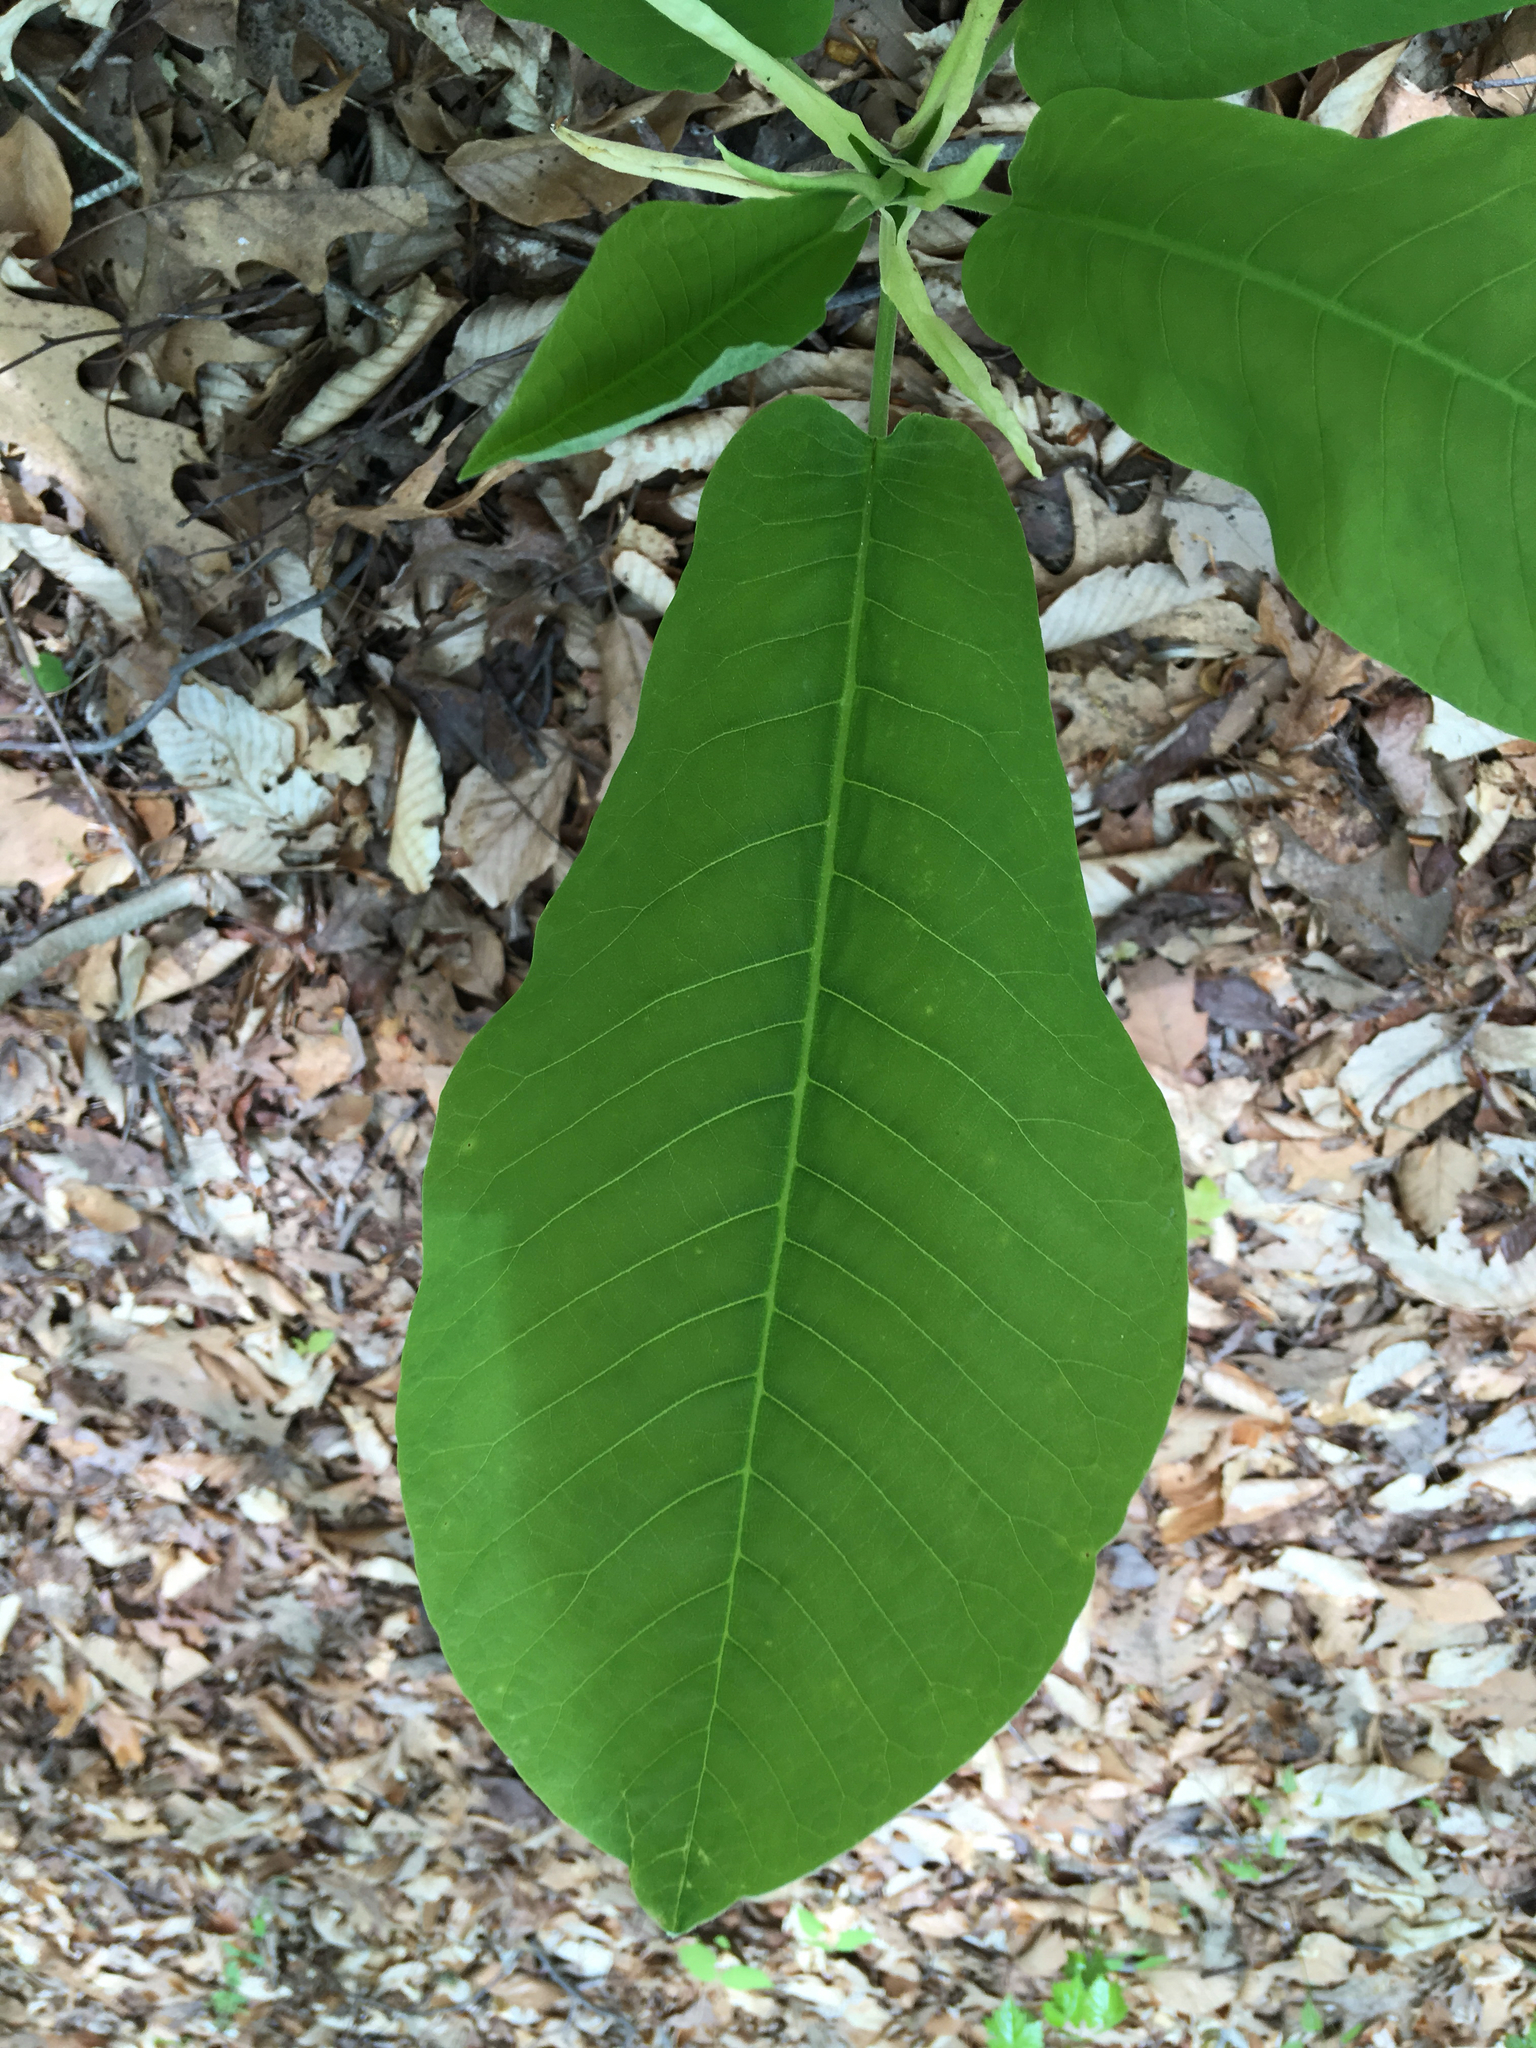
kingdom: Plantae
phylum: Tracheophyta
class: Magnoliopsida
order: Magnoliales
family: Magnoliaceae
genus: Magnolia
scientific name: Magnolia macrophylla
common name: Big-leaf magnolia
